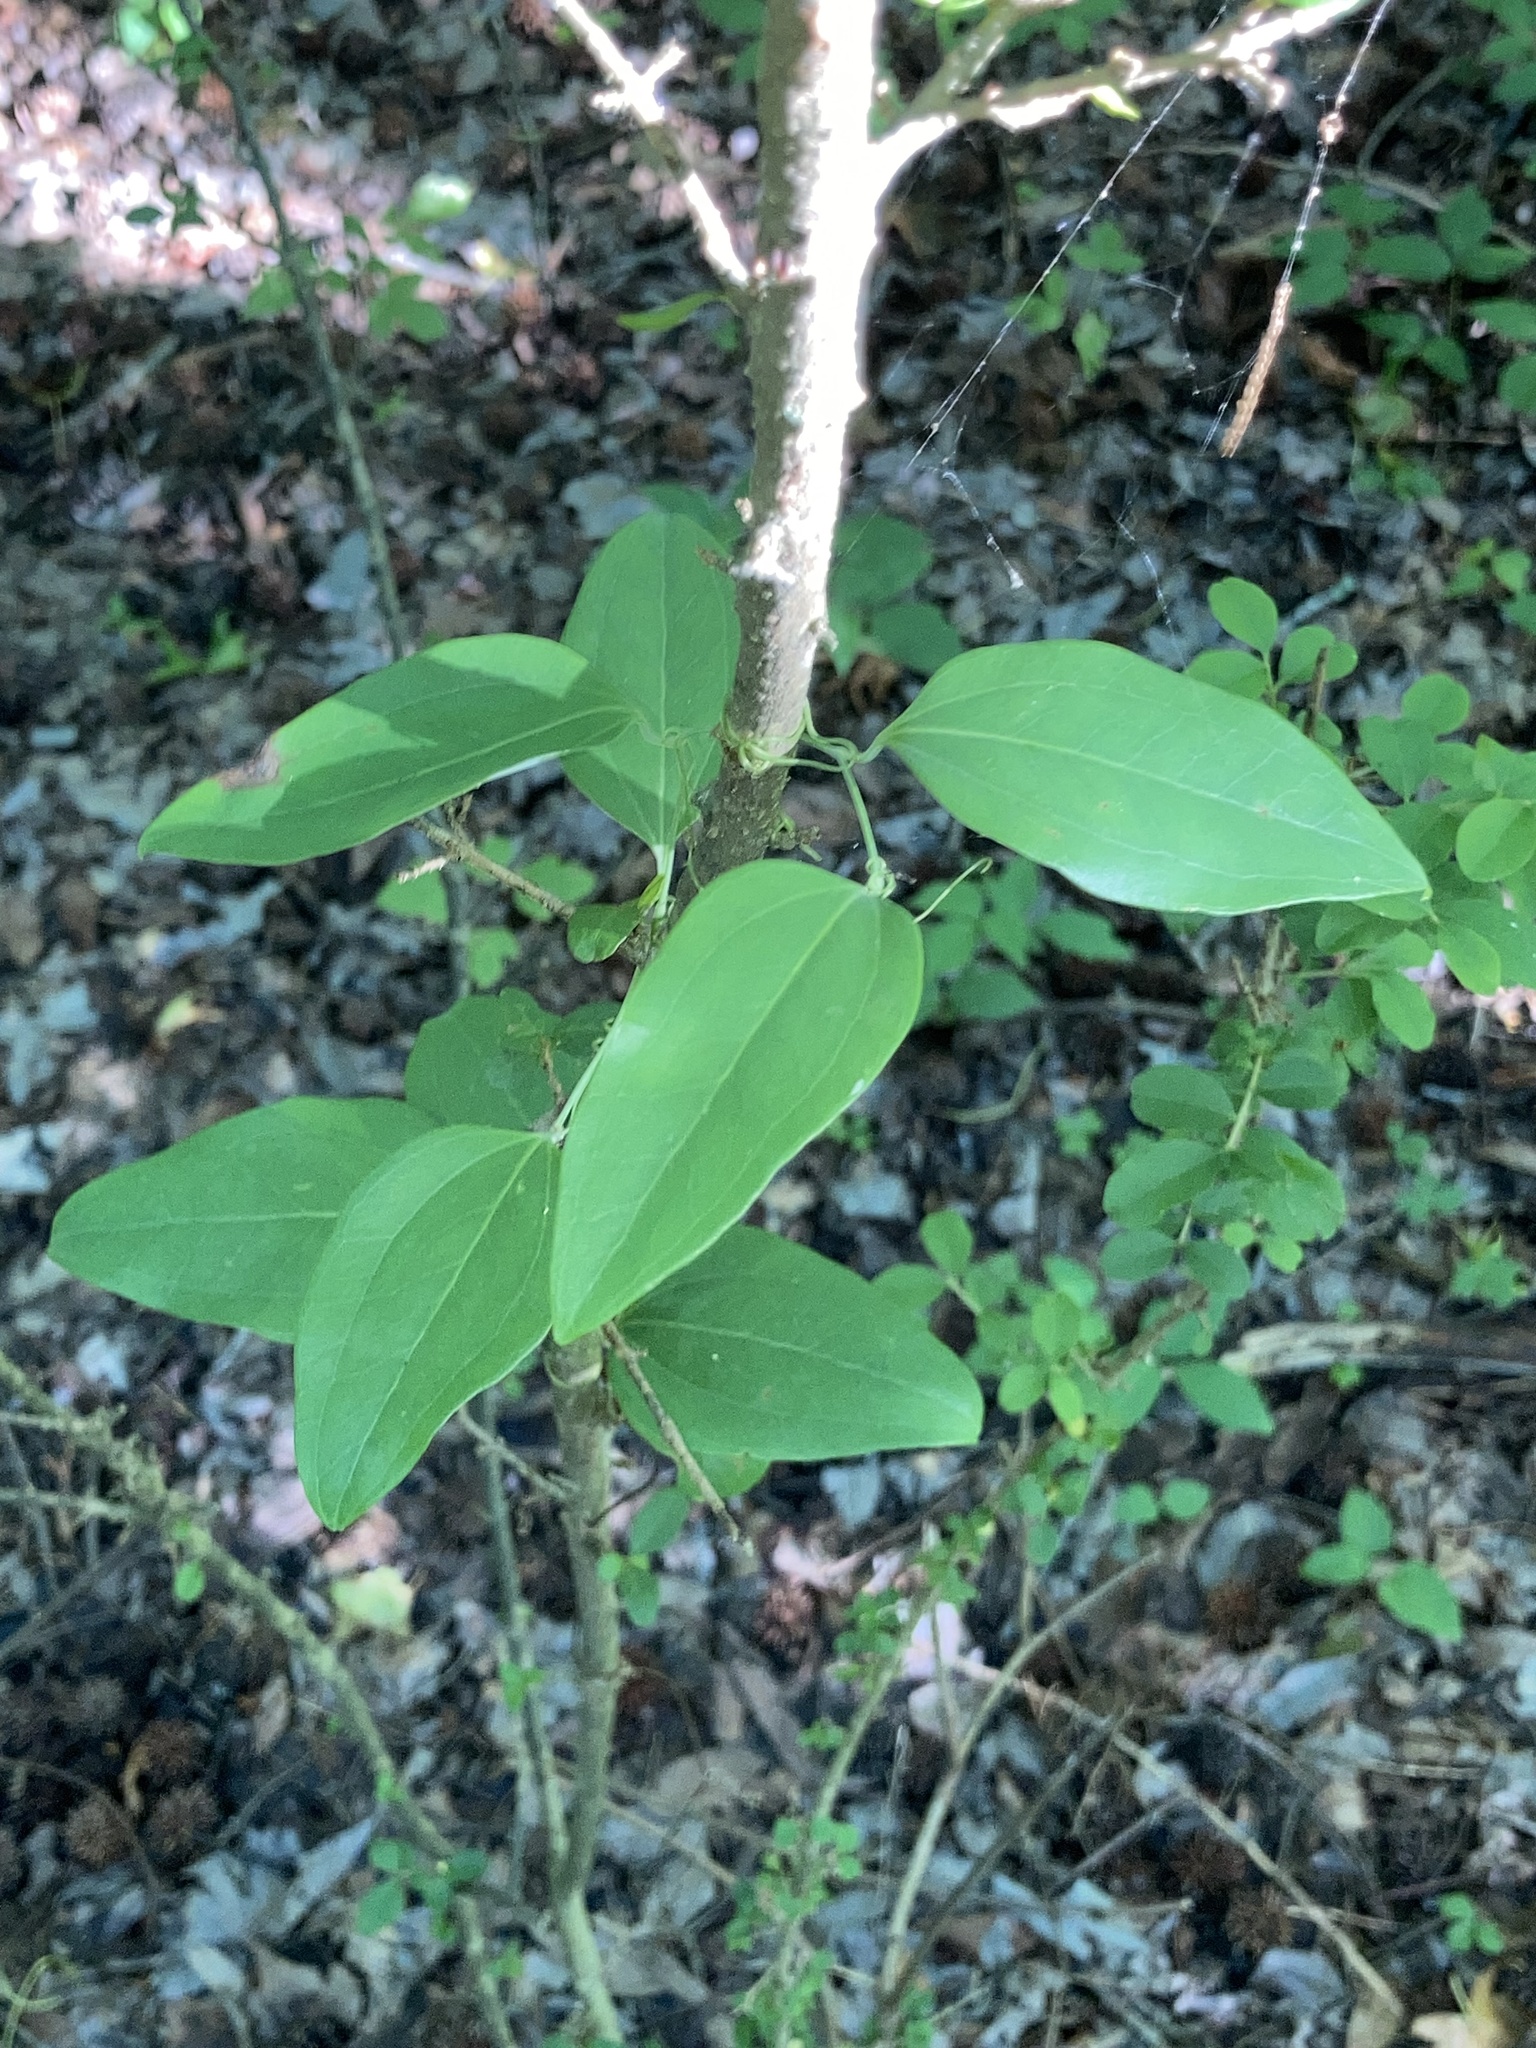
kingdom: Plantae
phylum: Tracheophyta
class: Liliopsida
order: Liliales
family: Smilacaceae
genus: Smilax
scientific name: Smilax glauca
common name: Cat greenbrier
